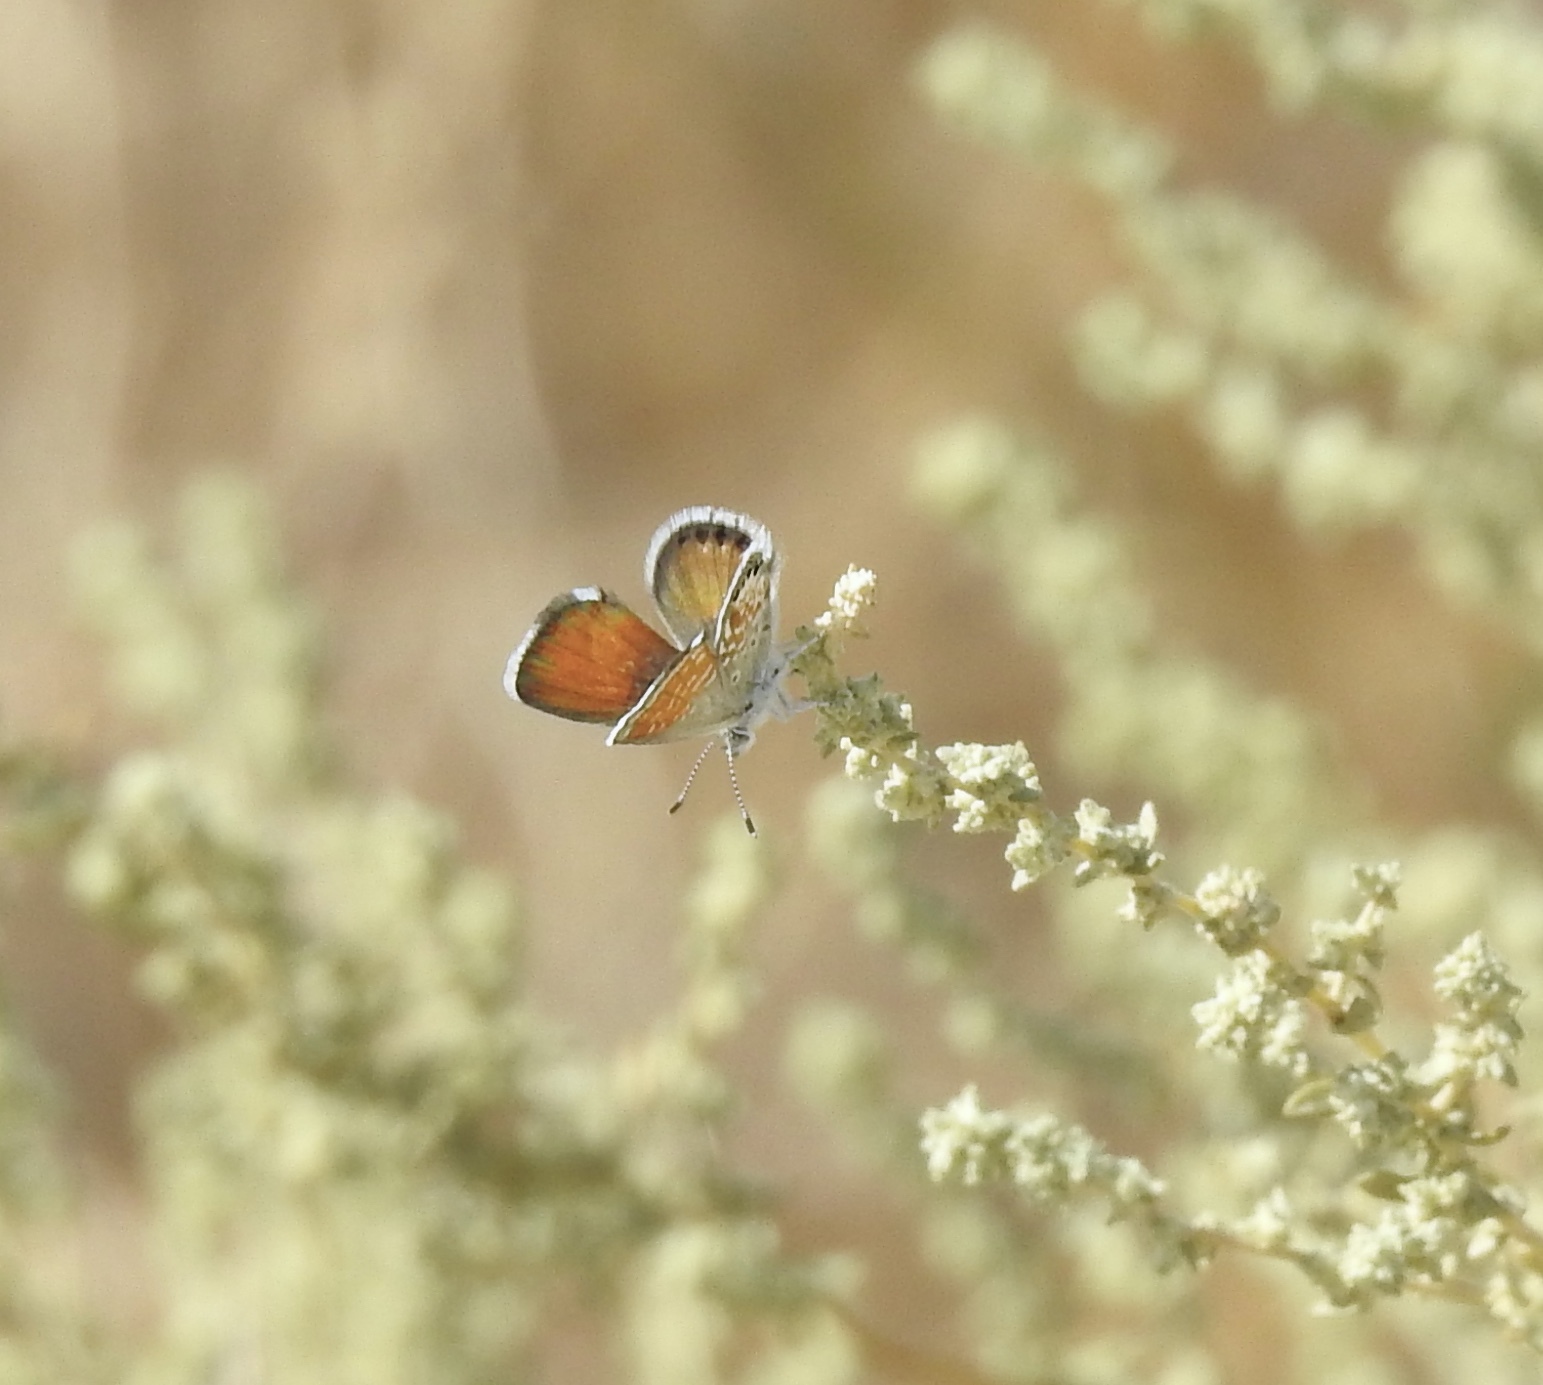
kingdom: Animalia
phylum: Arthropoda
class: Insecta
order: Lepidoptera
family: Lycaenidae
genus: Brephidium
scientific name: Brephidium exilis
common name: Pygmy blue
